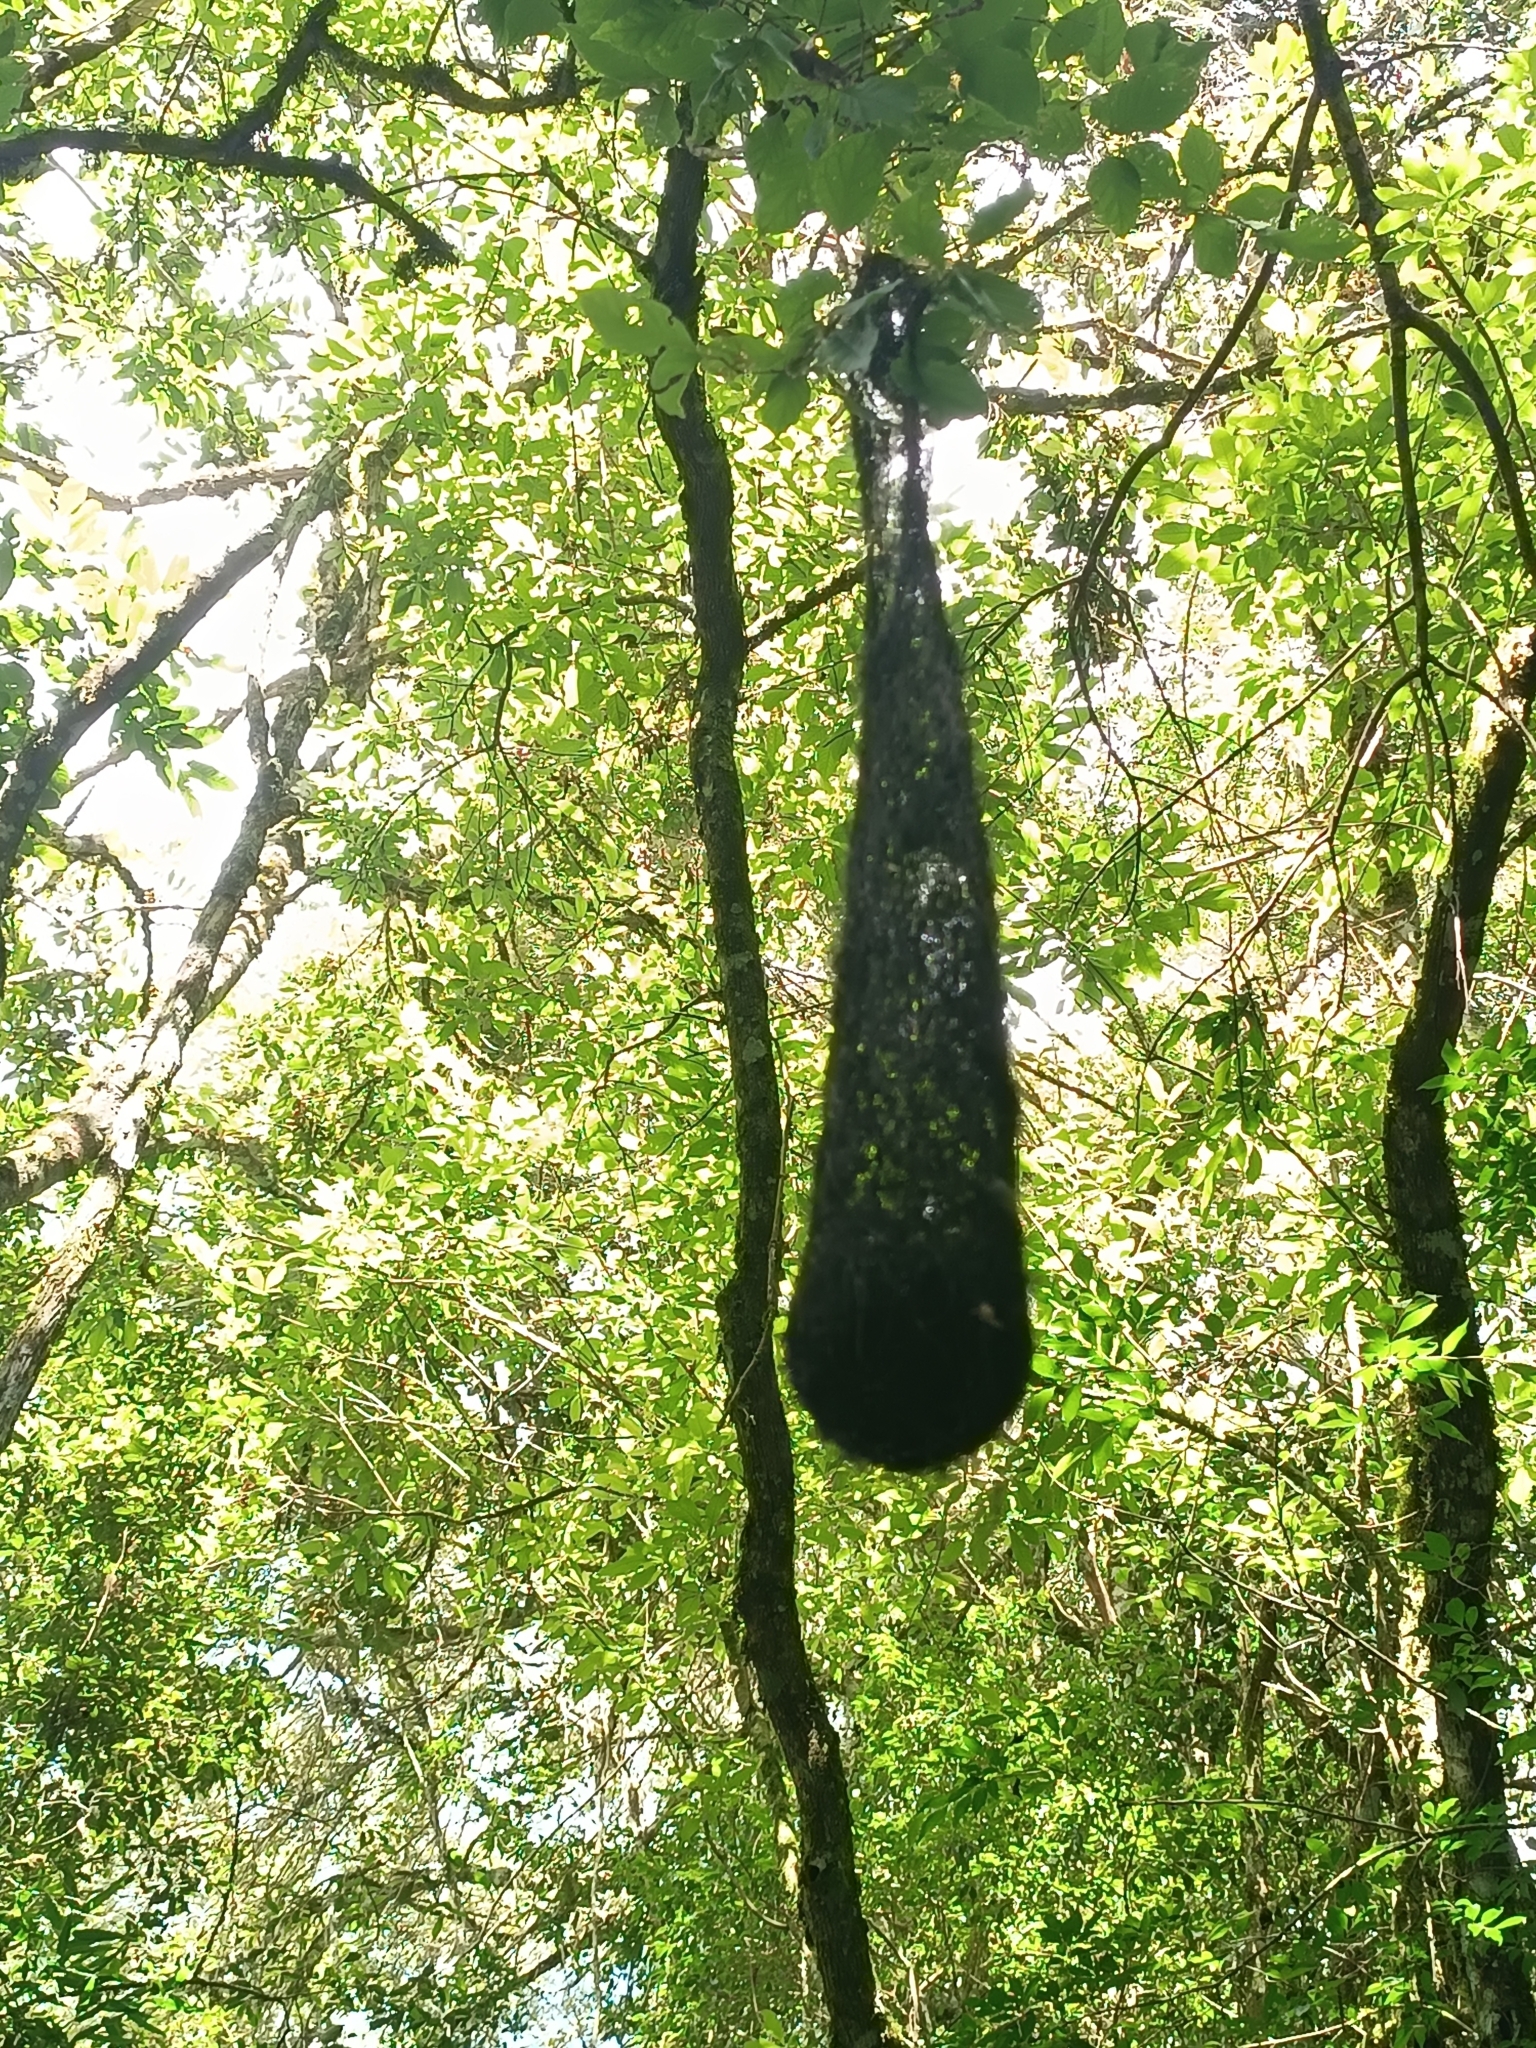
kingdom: Animalia
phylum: Chordata
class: Aves
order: Passeriformes
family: Icteridae
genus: Cacicus
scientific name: Cacicus chrysopterus
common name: Golden-winged cacique
